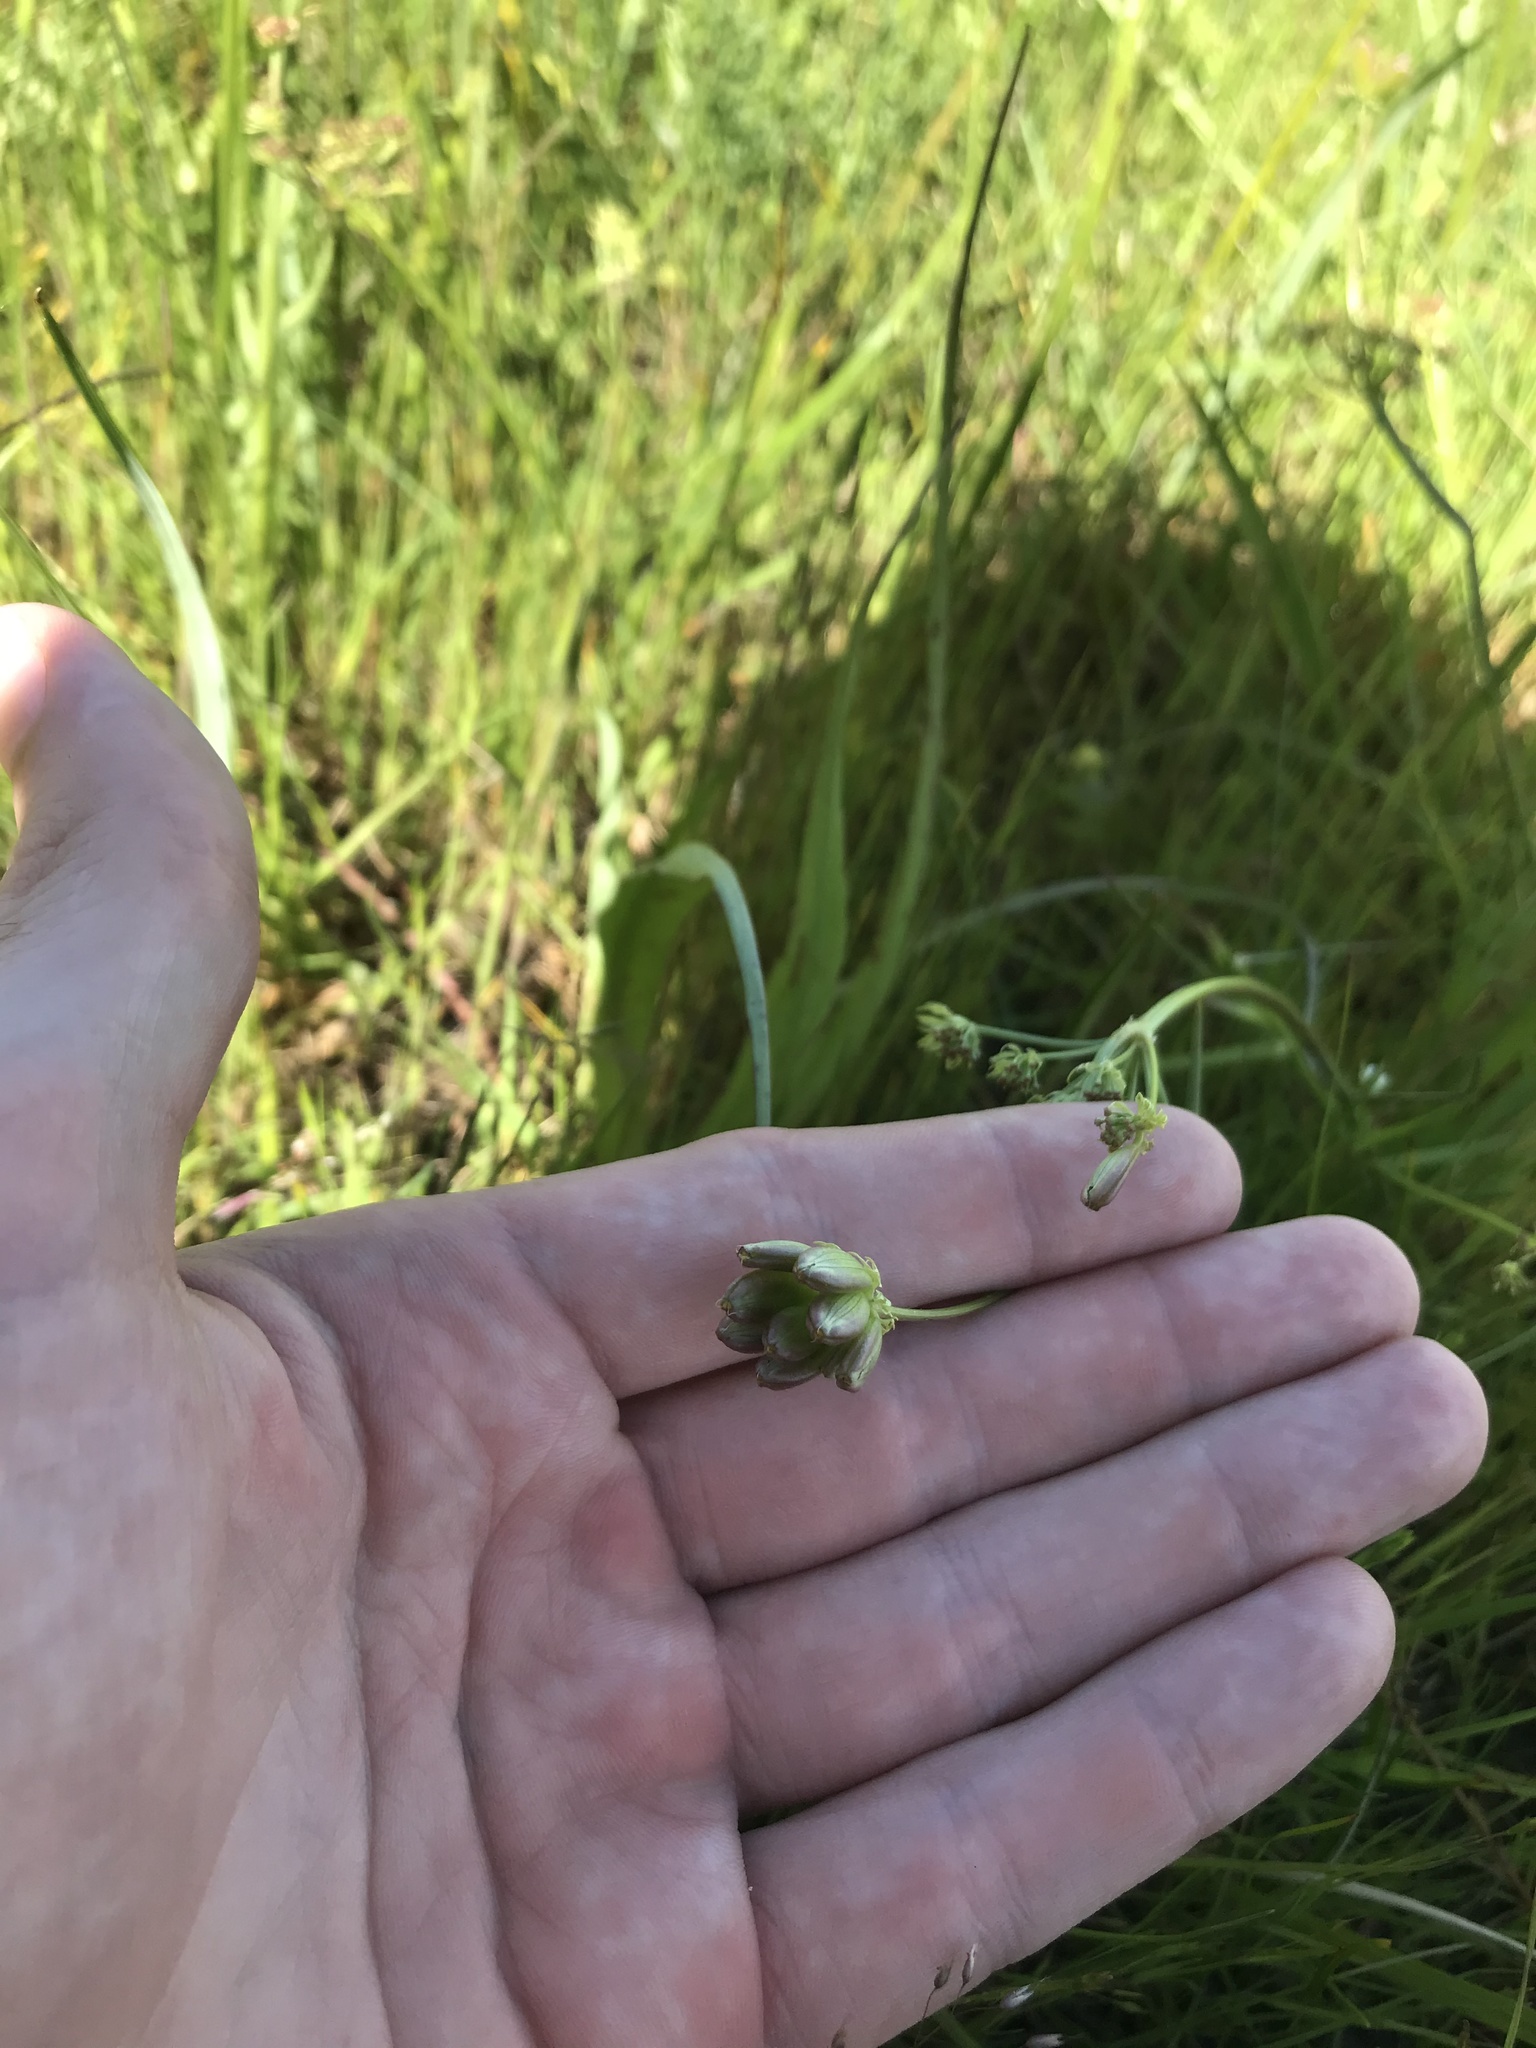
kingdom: Plantae
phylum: Tracheophyta
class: Magnoliopsida
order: Apiales
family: Apiaceae
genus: Lomatium
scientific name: Lomatium bradshawii
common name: Bradshaw's desert-parsley
